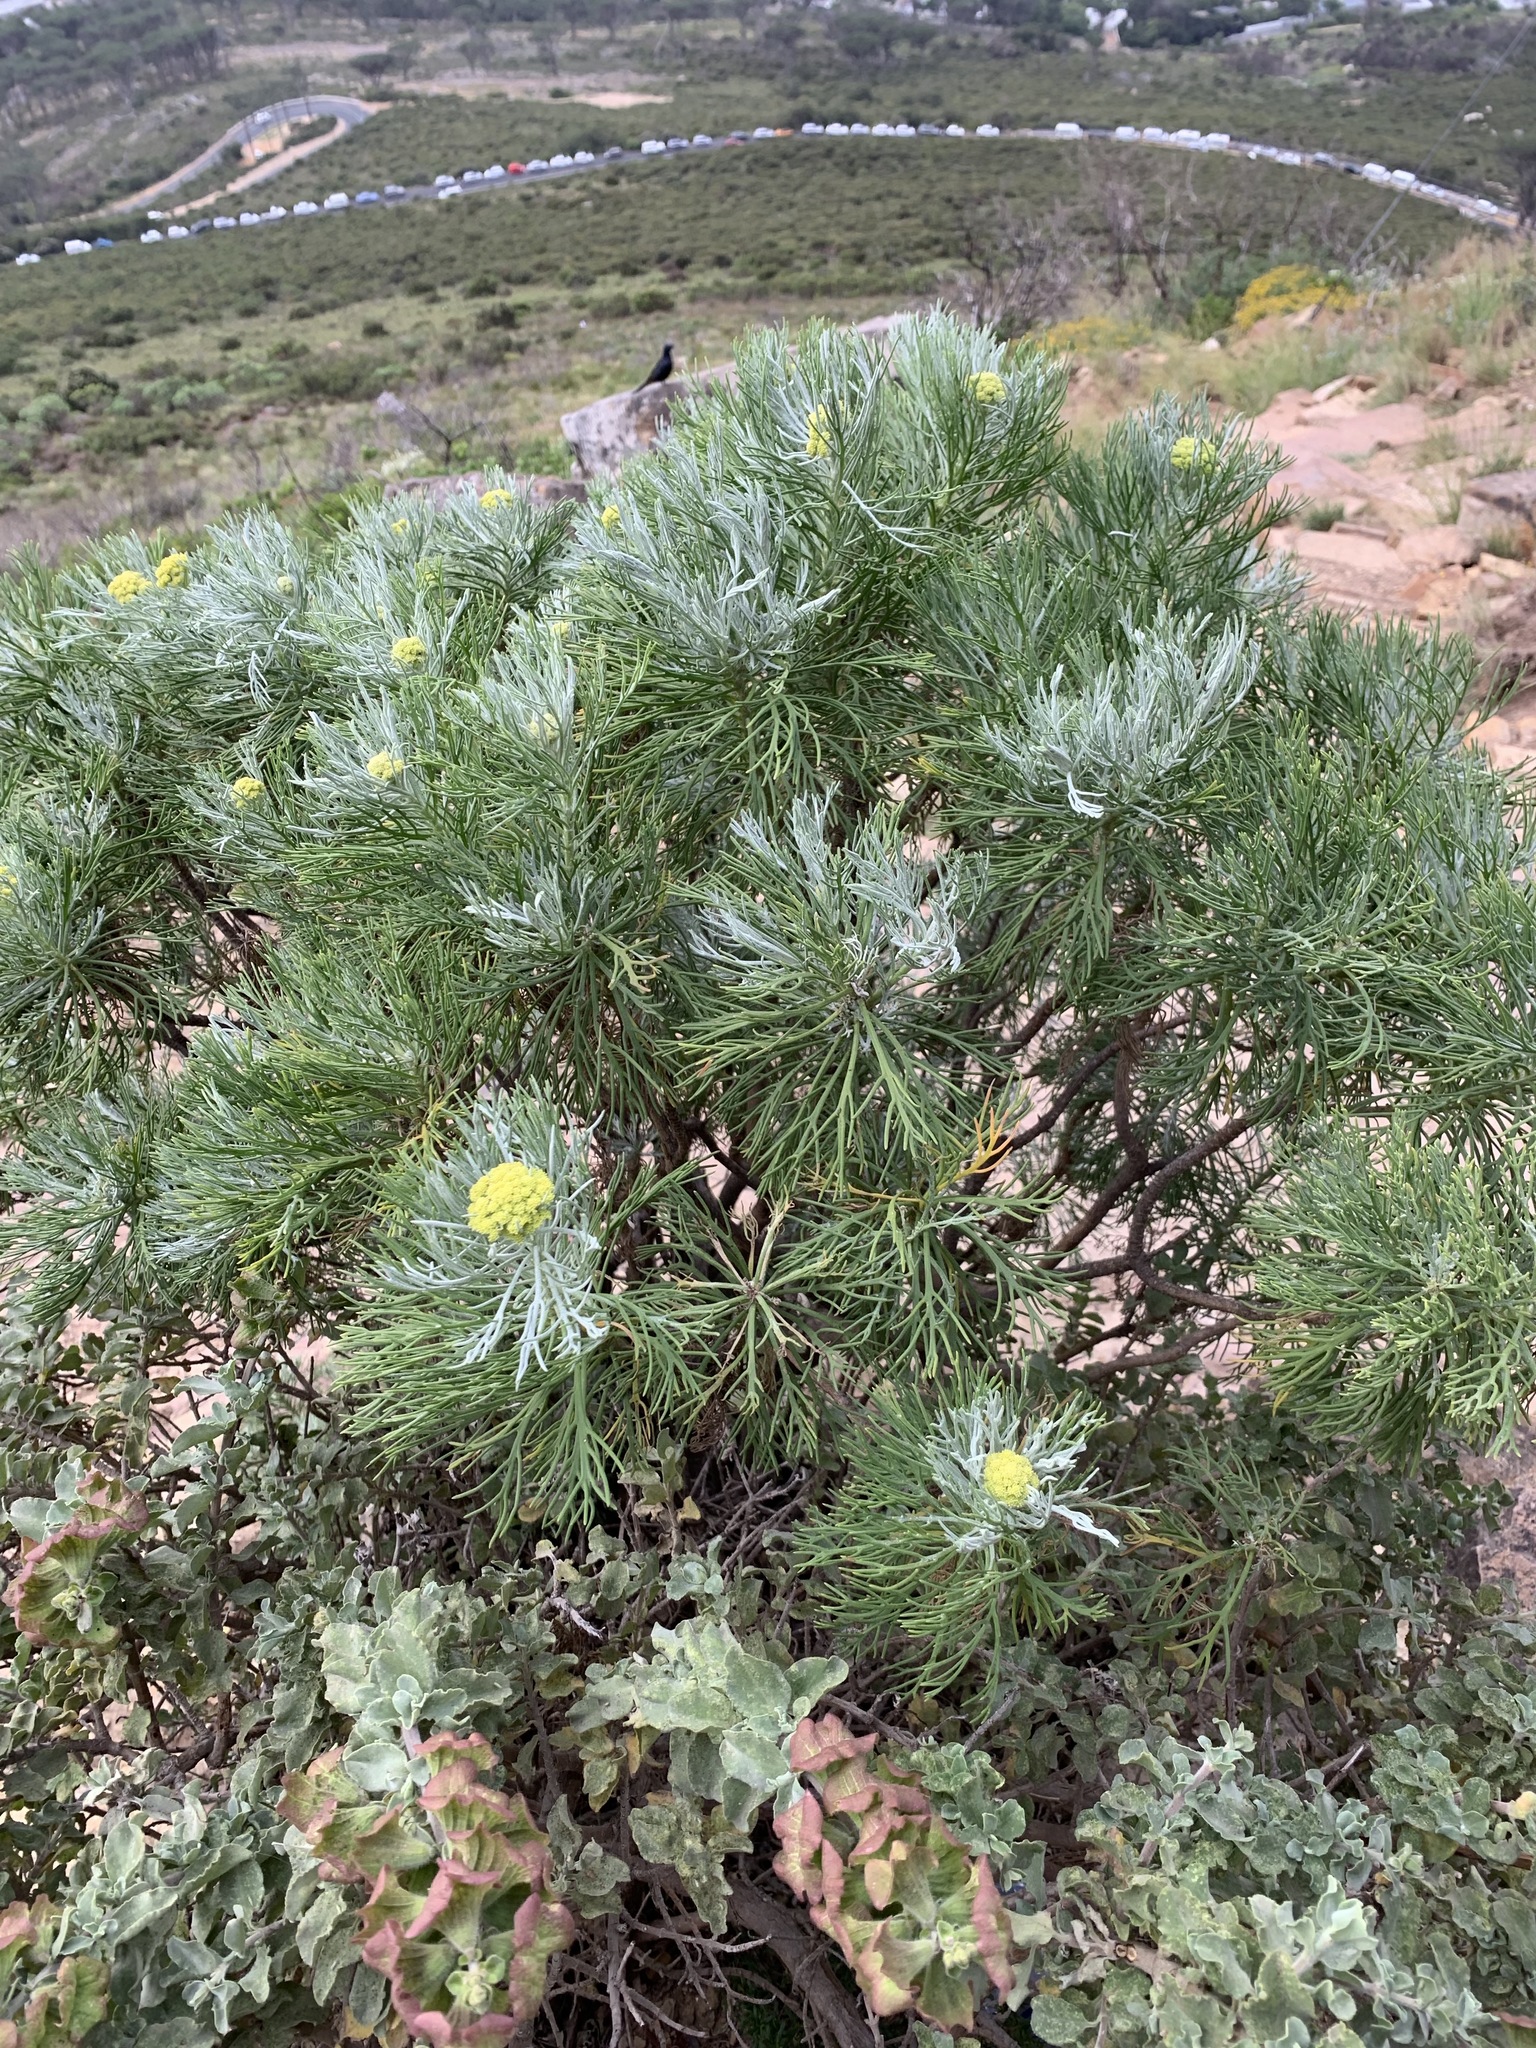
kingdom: Plantae
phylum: Tracheophyta
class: Magnoliopsida
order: Asterales
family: Asteraceae
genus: Hymenolepis
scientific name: Hymenolepis crithmifolia
